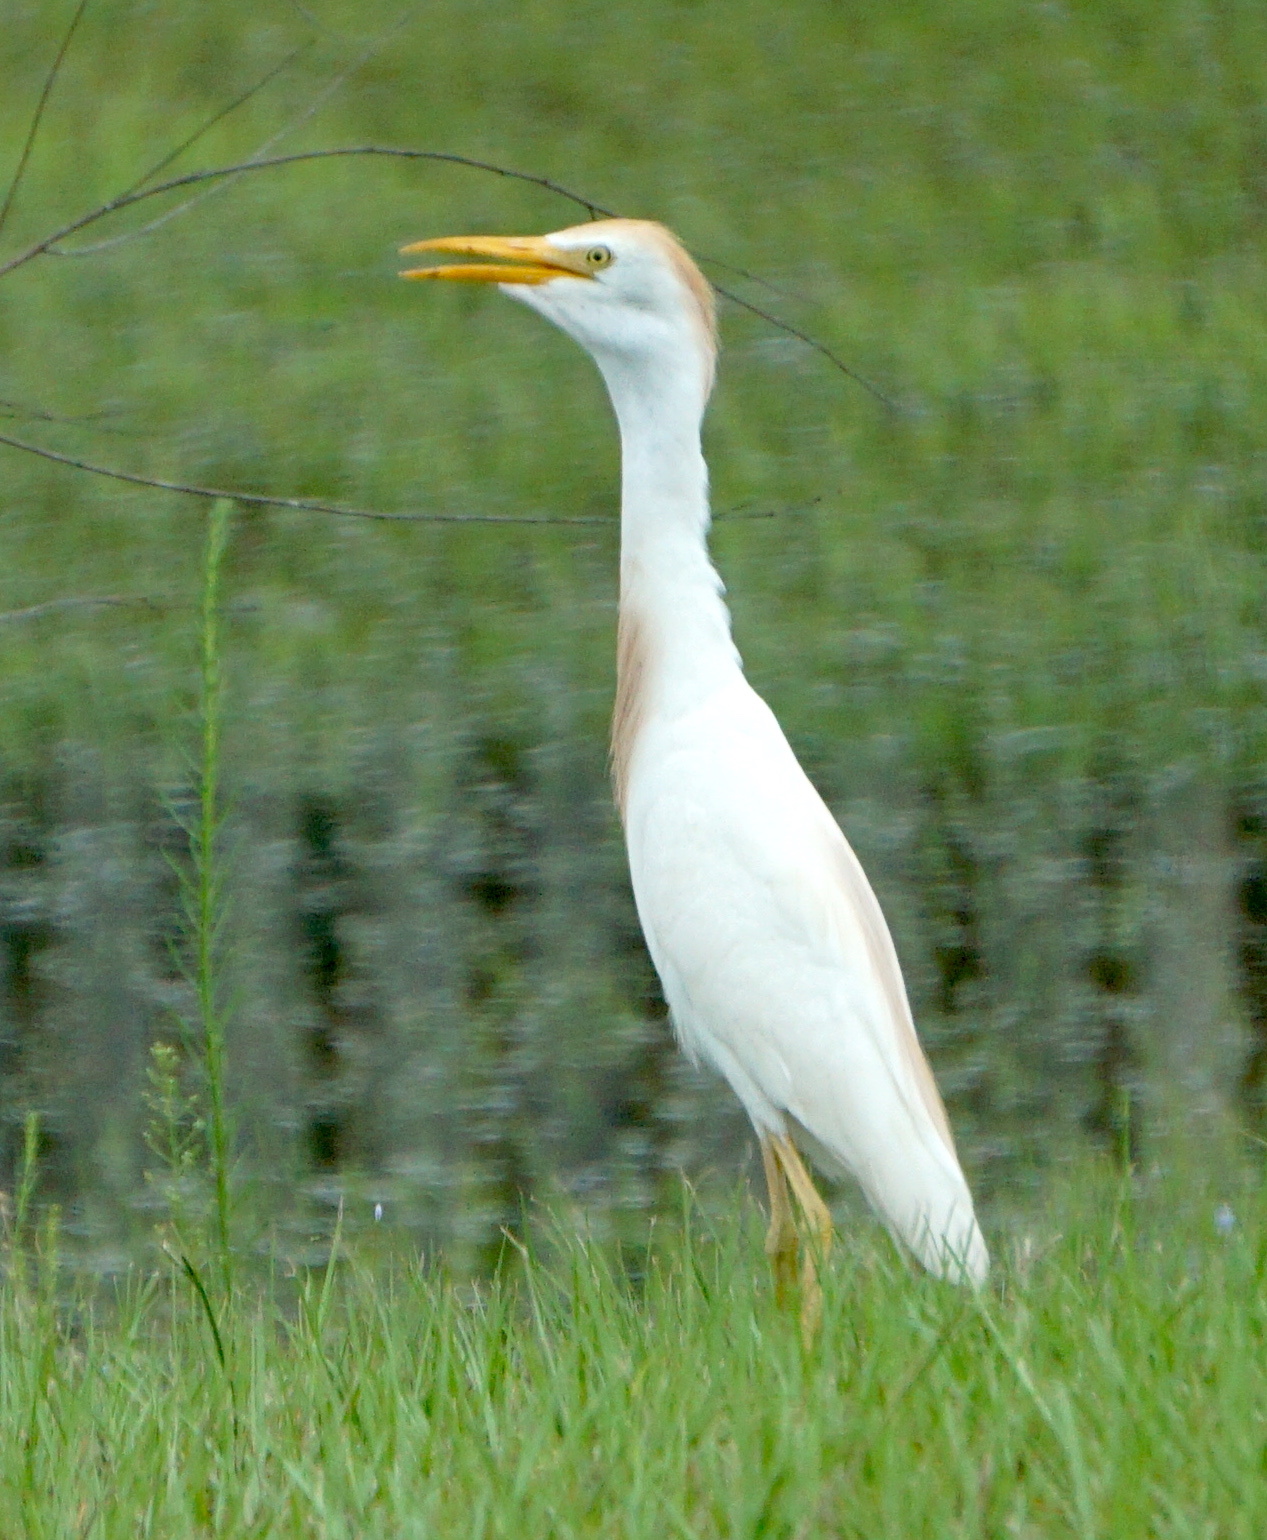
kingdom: Animalia
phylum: Chordata
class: Aves
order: Pelecaniformes
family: Ardeidae
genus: Bubulcus
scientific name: Bubulcus ibis
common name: Cattle egret
